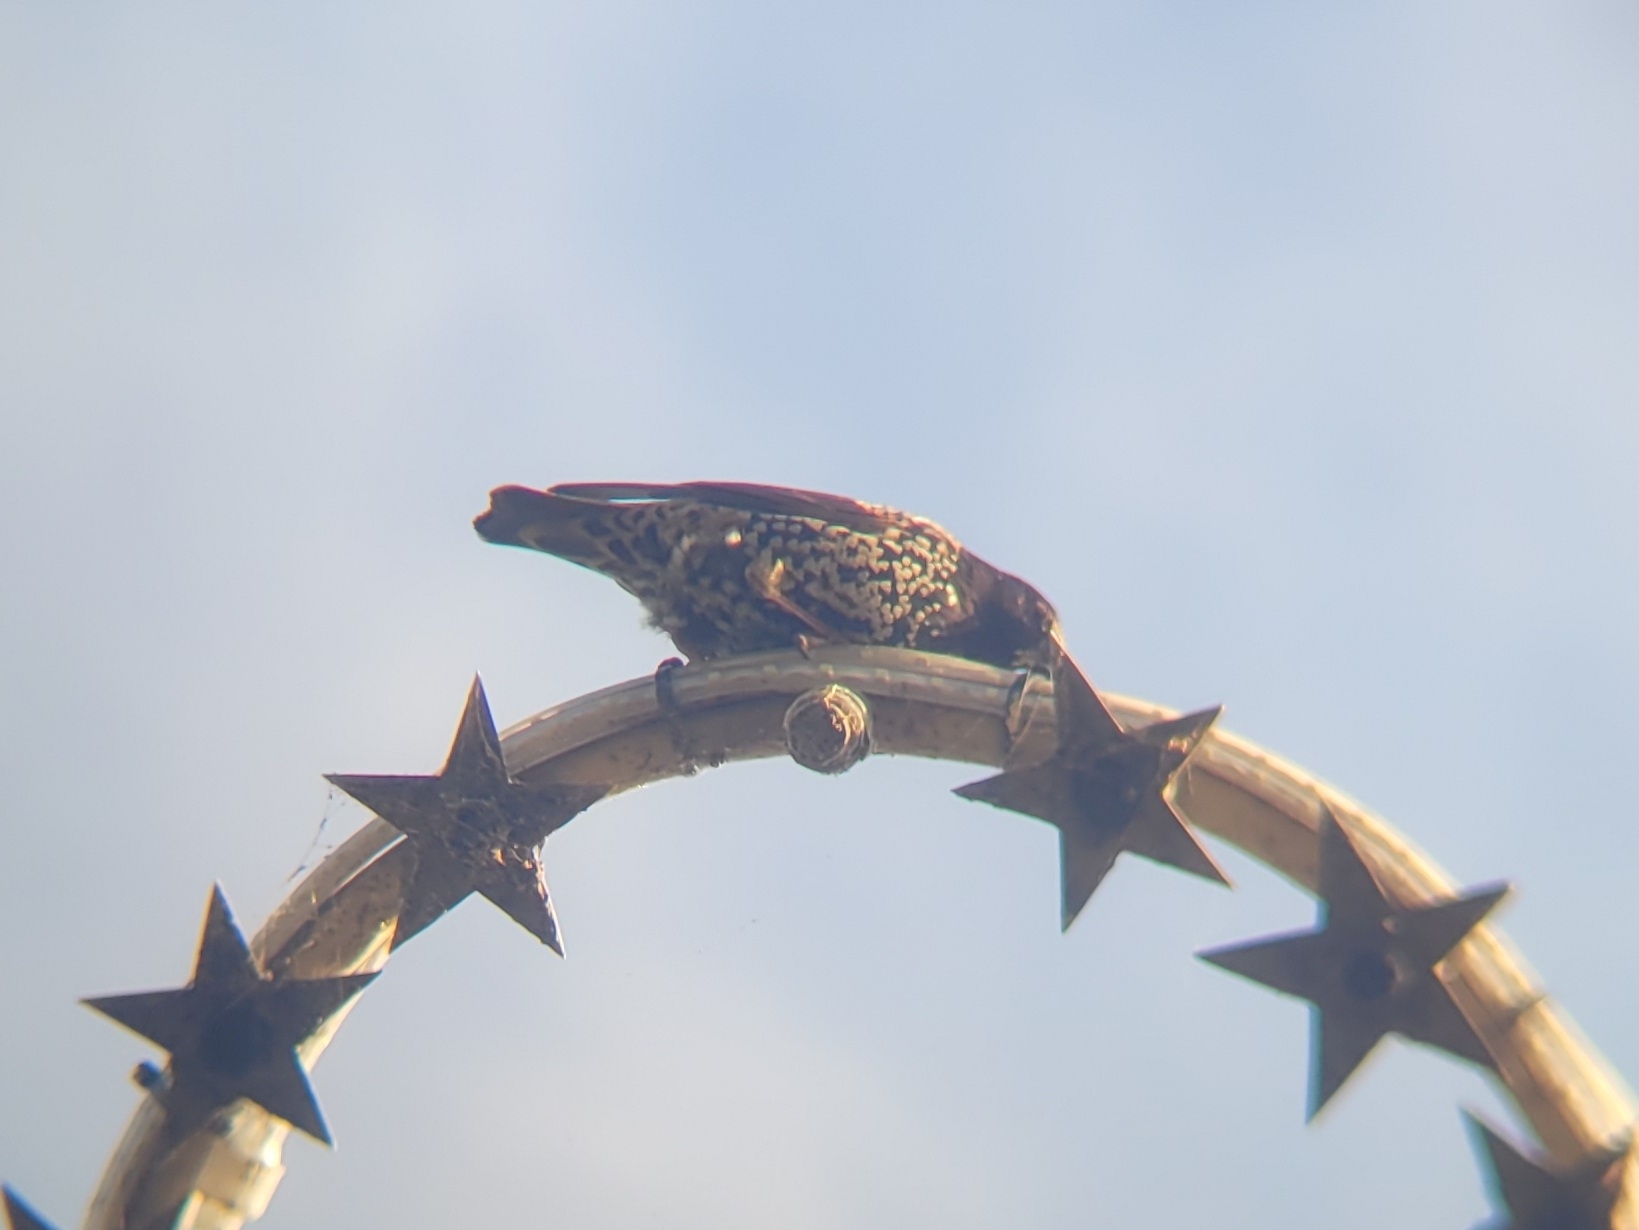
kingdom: Animalia
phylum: Chordata
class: Aves
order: Passeriformes
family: Sturnidae
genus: Sturnus
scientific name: Sturnus vulgaris
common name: Common starling
